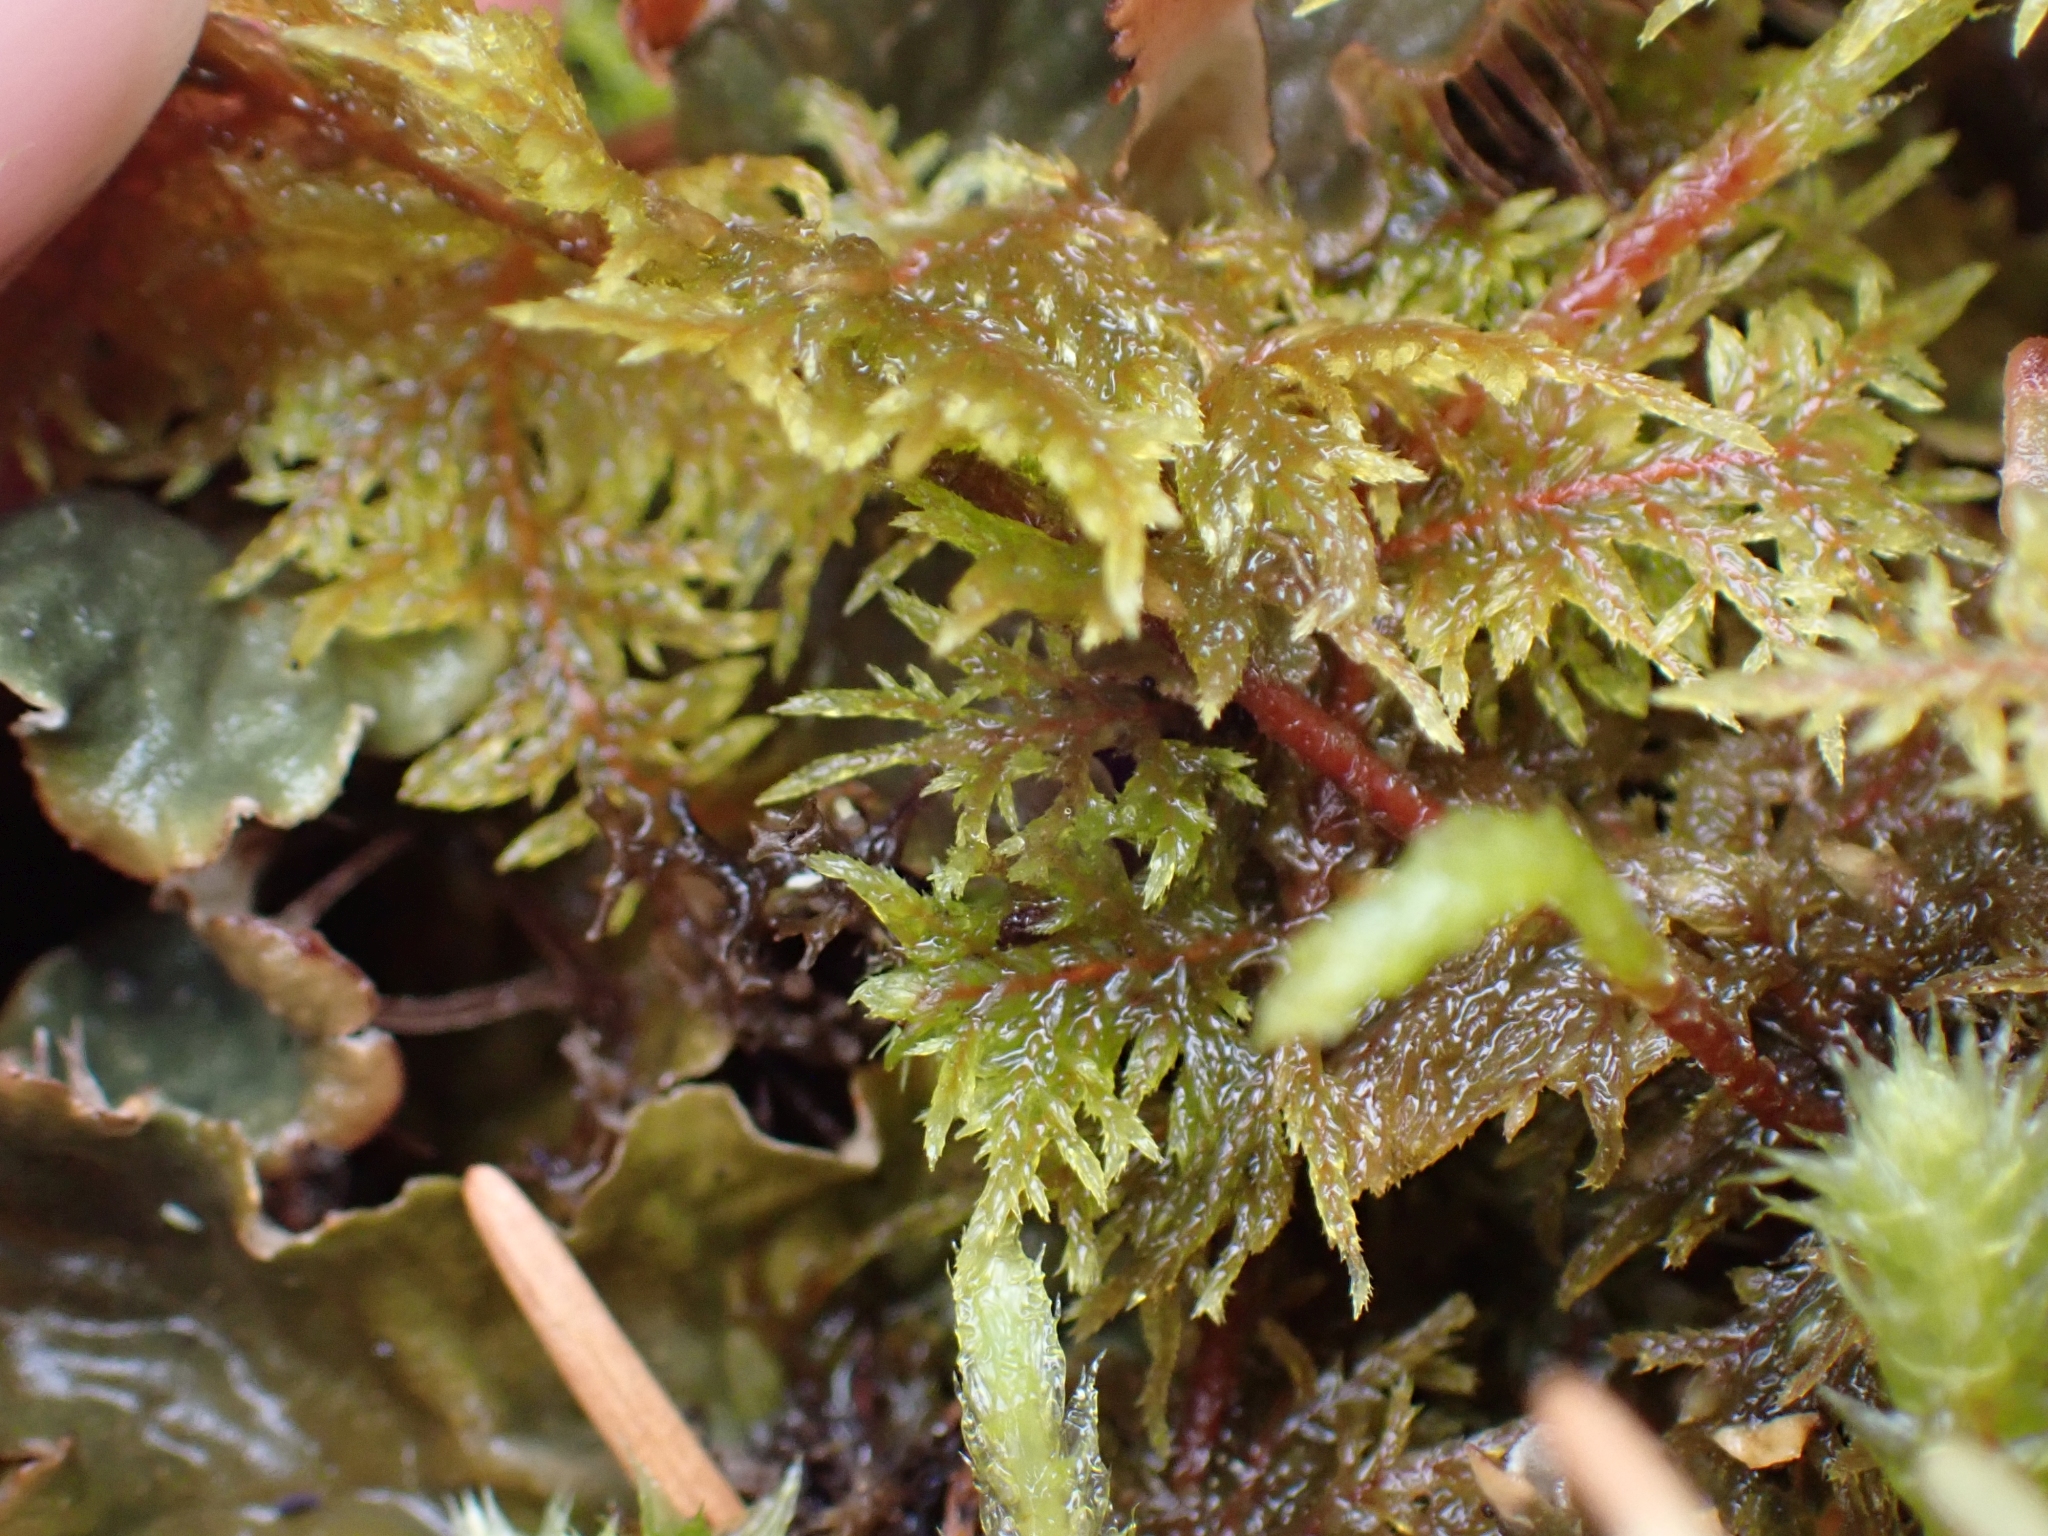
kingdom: Plantae
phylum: Bryophyta
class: Bryopsida
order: Hypnales
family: Hylocomiaceae
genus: Hylocomium
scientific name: Hylocomium splendens
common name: Stairstep moss
